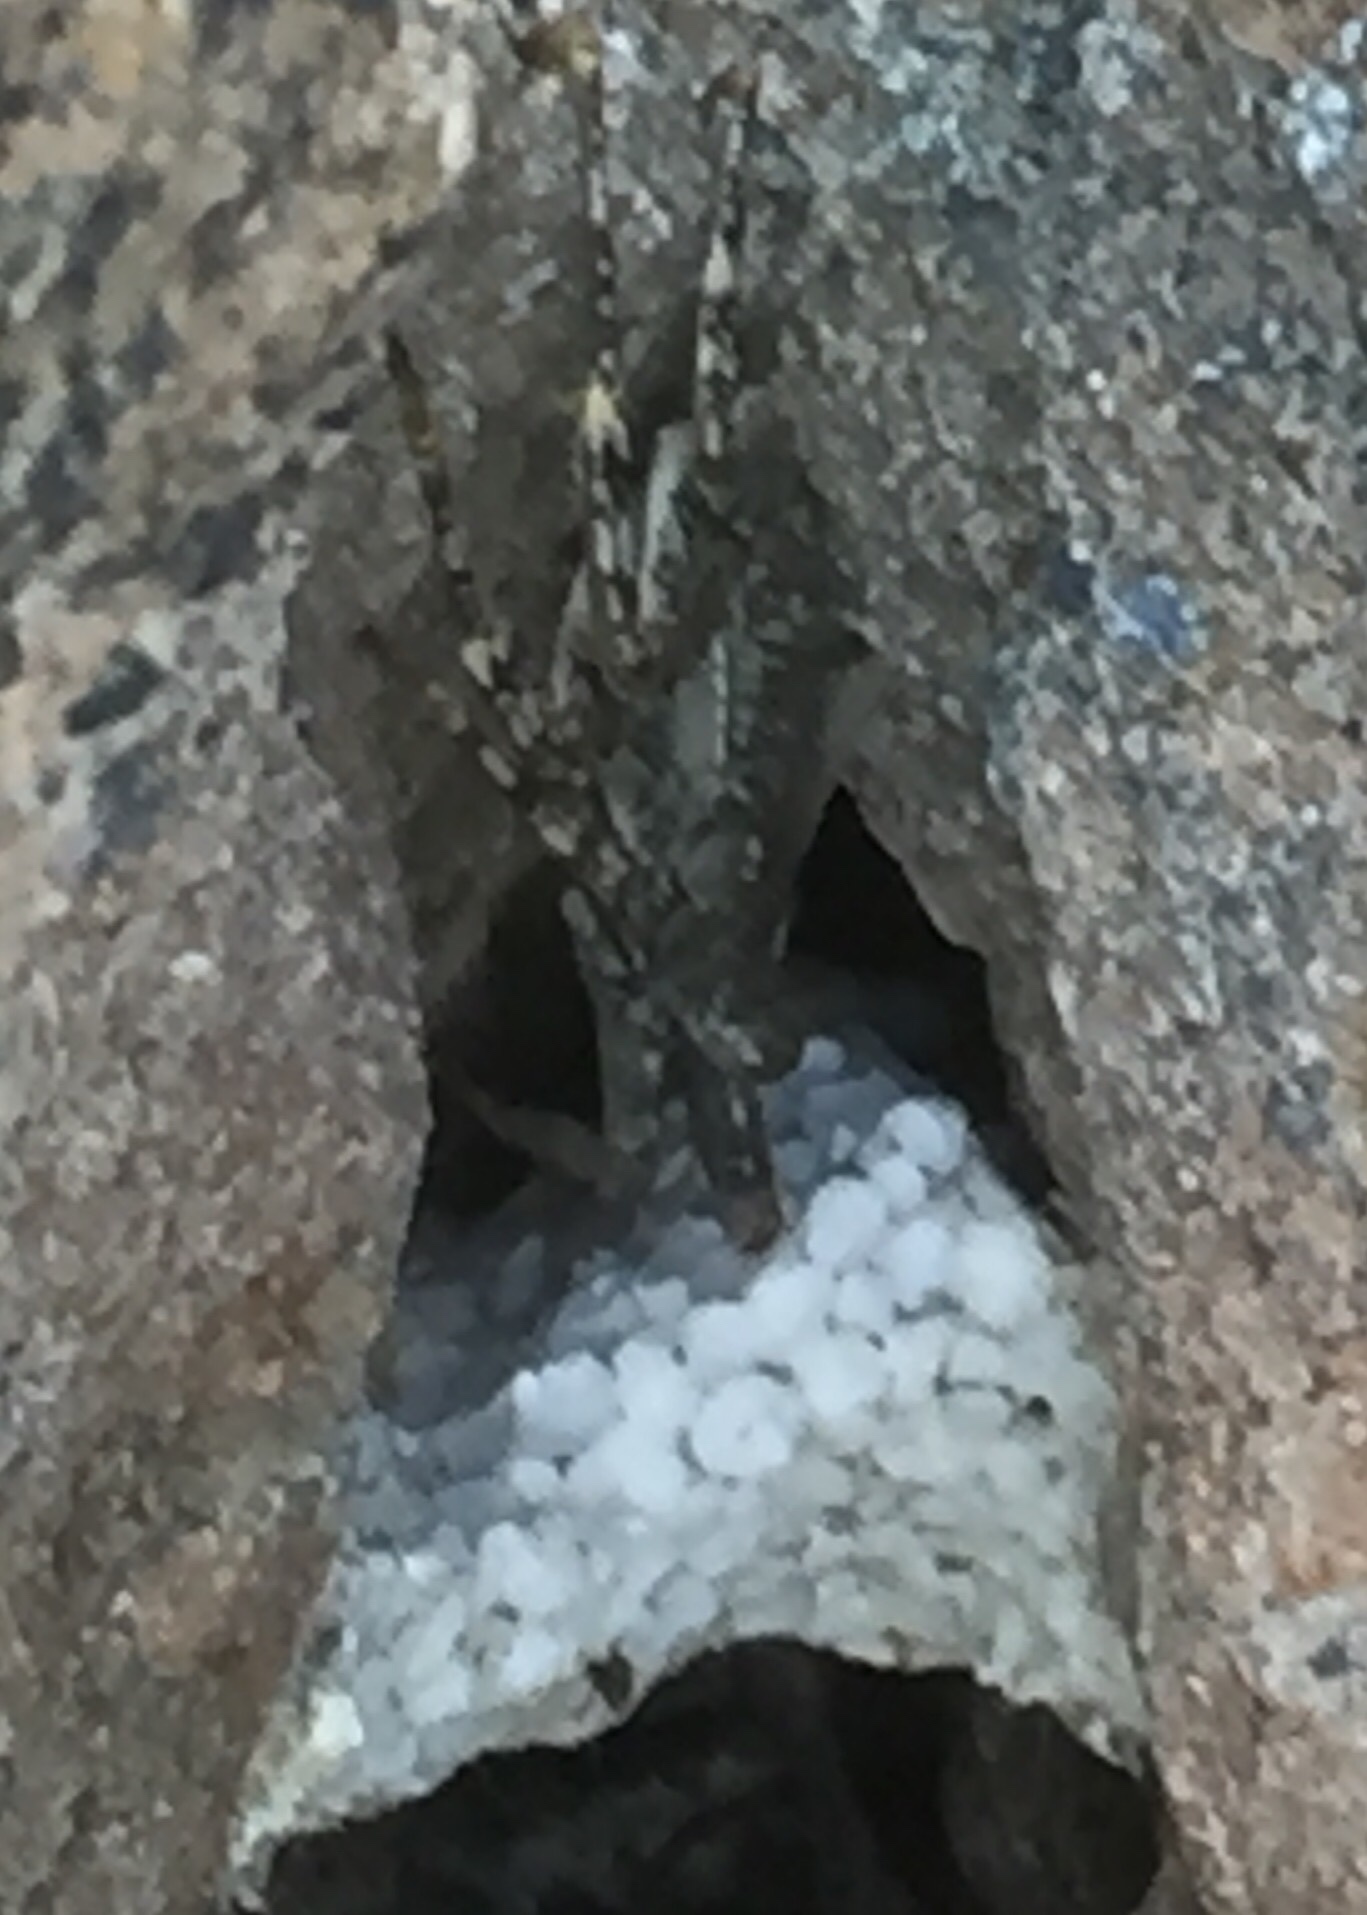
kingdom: Animalia
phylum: Arthropoda
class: Malacostraca
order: Decapoda
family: Grapsidae
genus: Grapsus
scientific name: Grapsus grapsus
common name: Sally lightfoot
